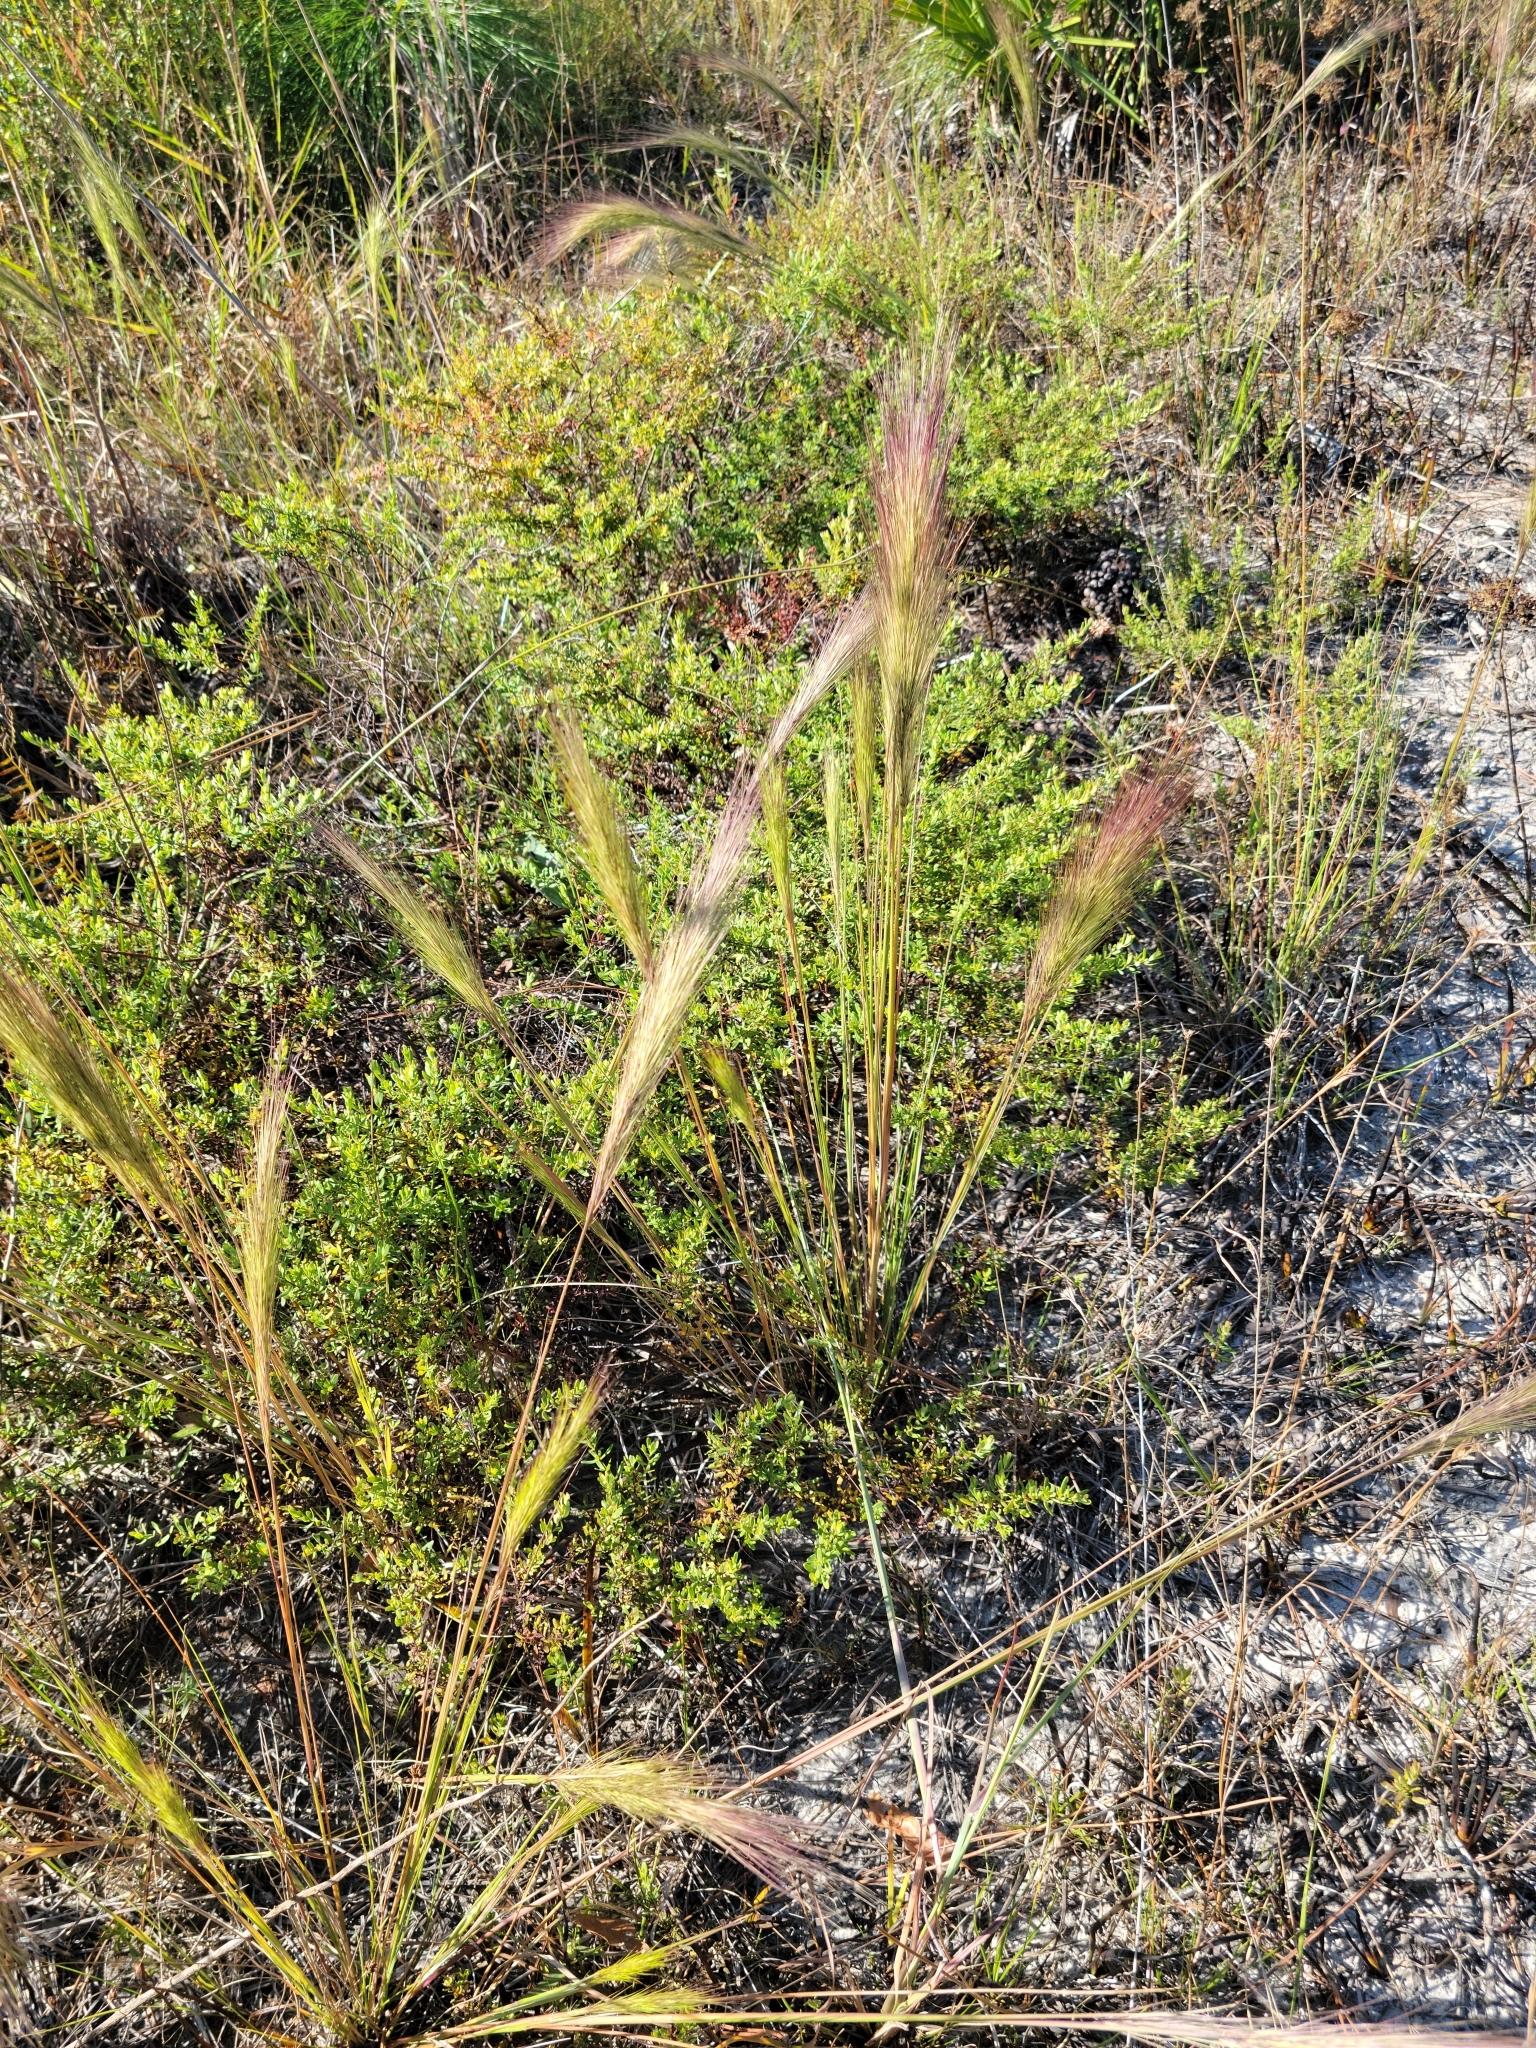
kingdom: Plantae
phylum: Tracheophyta
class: Liliopsida
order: Poales
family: Poaceae
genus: Aristida
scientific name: Aristida spiciformis
